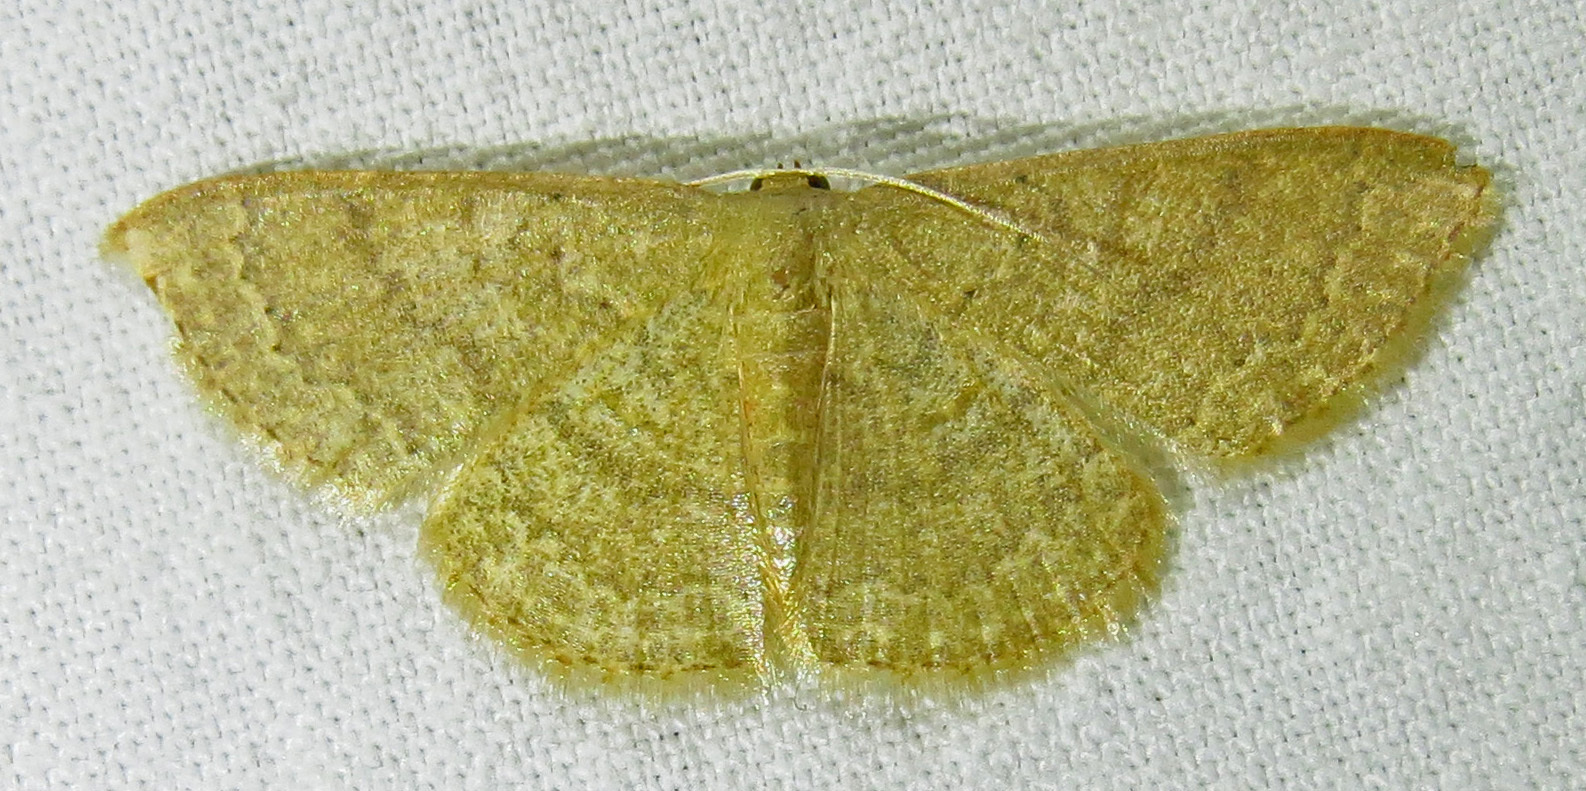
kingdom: Animalia
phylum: Arthropoda
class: Insecta
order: Lepidoptera
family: Geometridae
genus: Pleuroprucha
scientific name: Pleuroprucha insulsaria
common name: Common tan wave
